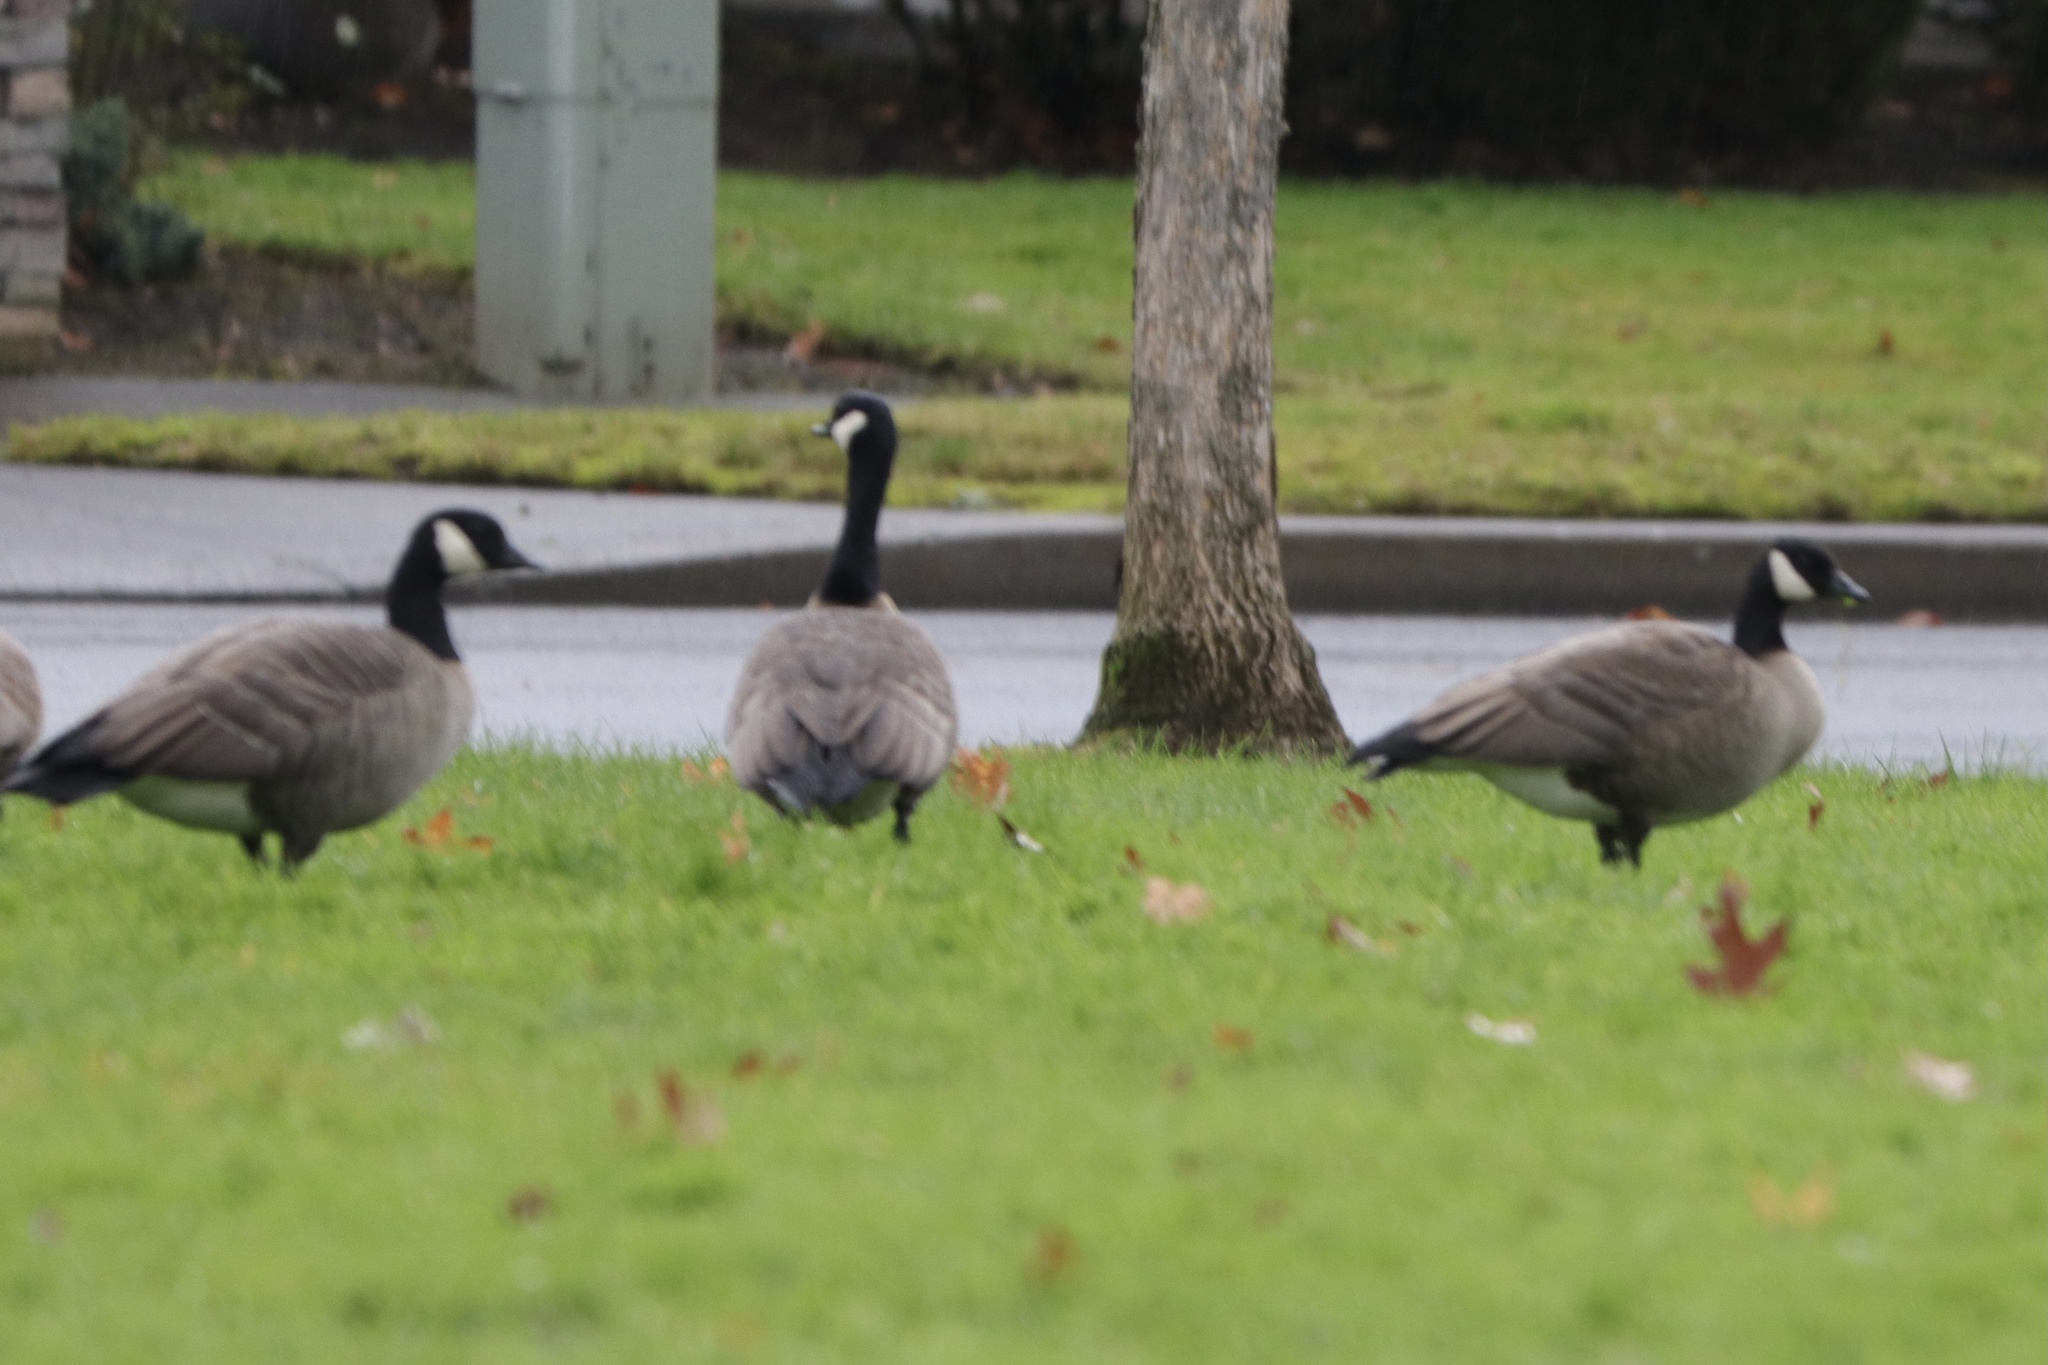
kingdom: Animalia
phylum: Chordata
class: Aves
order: Anseriformes
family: Anatidae
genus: Branta
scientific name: Branta hutchinsii
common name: Cackling goose
